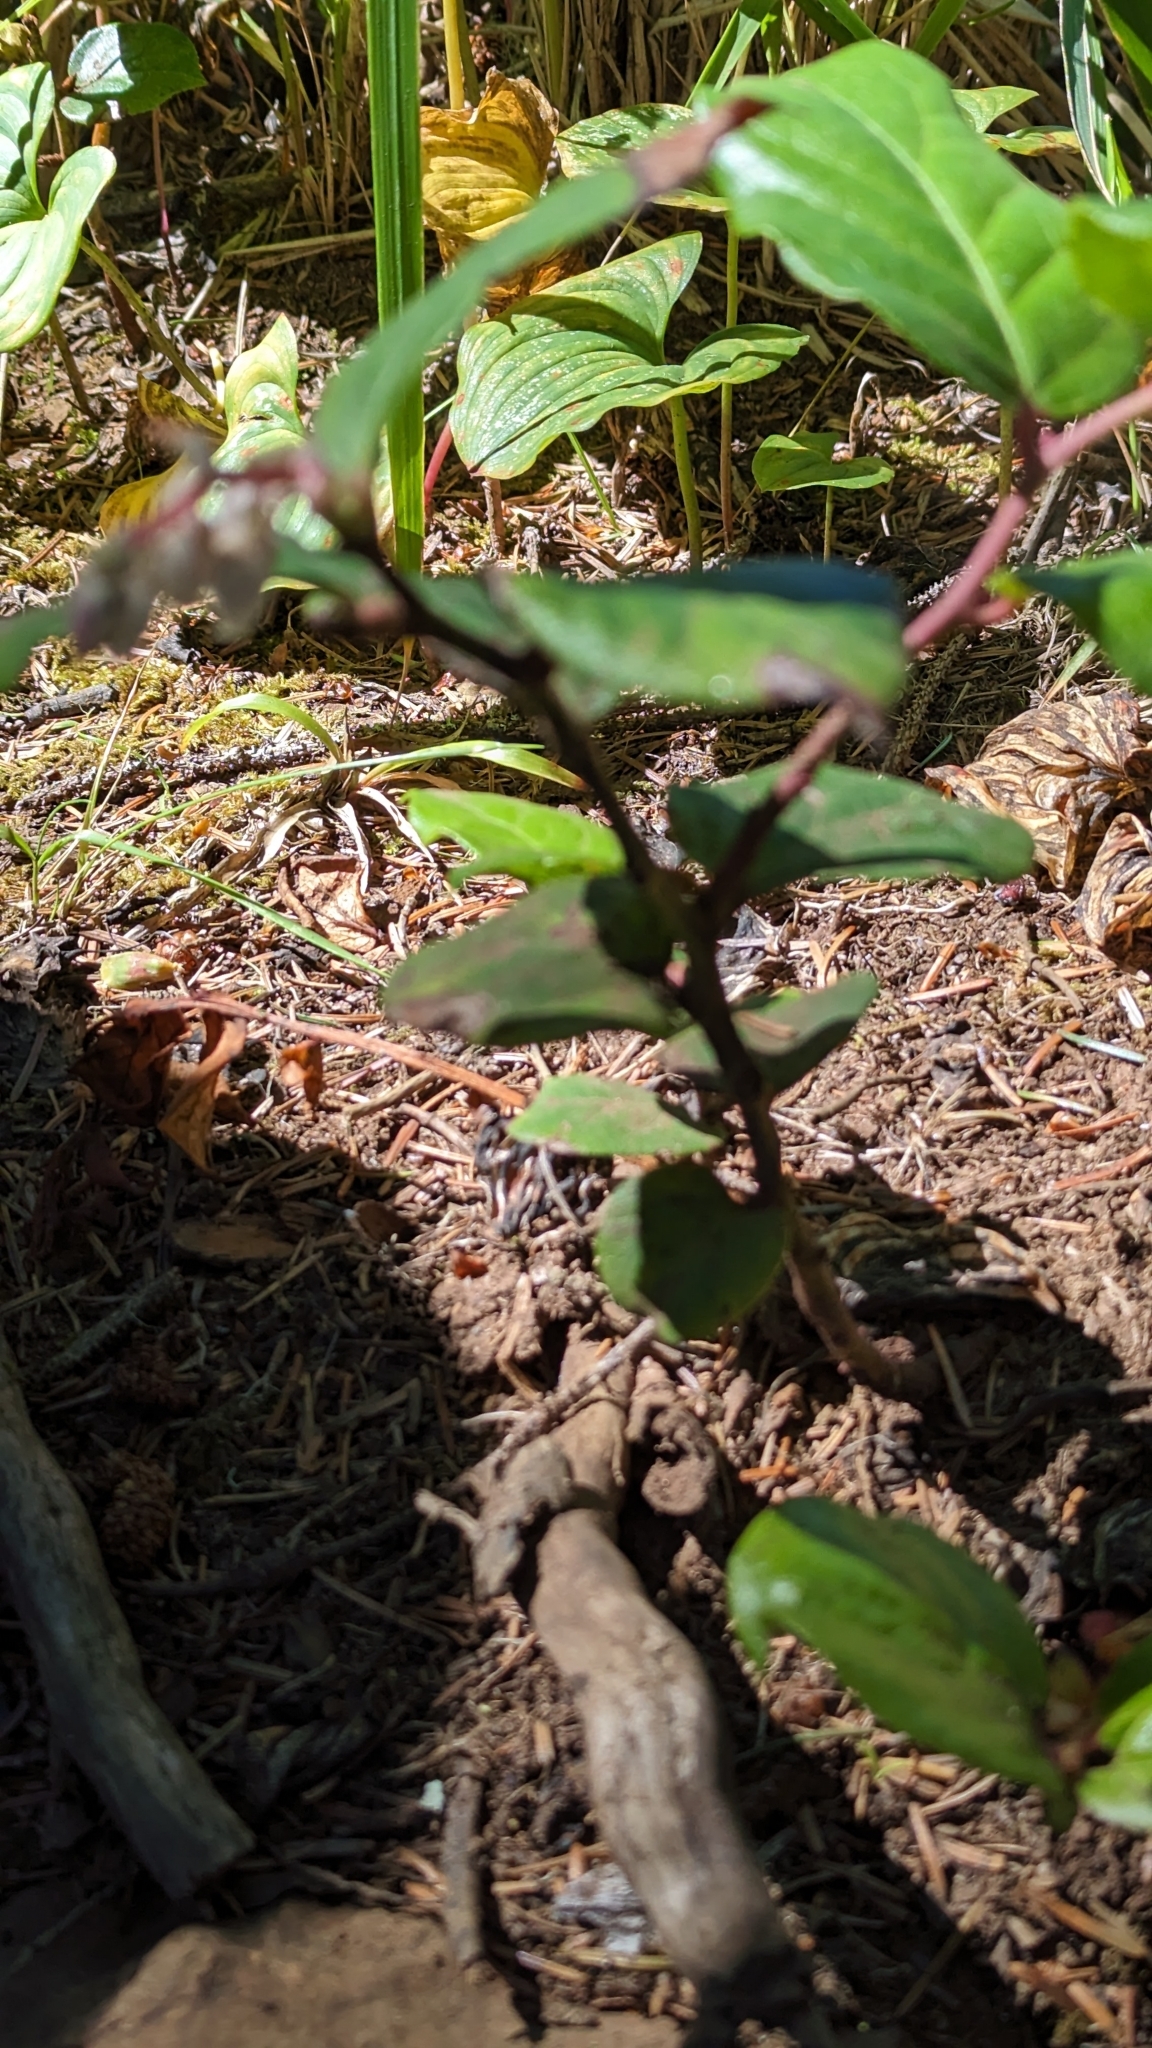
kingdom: Plantae
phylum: Tracheophyta
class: Magnoliopsida
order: Ericales
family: Ericaceae
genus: Gaultheria
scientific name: Gaultheria shallon
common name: Shallon
